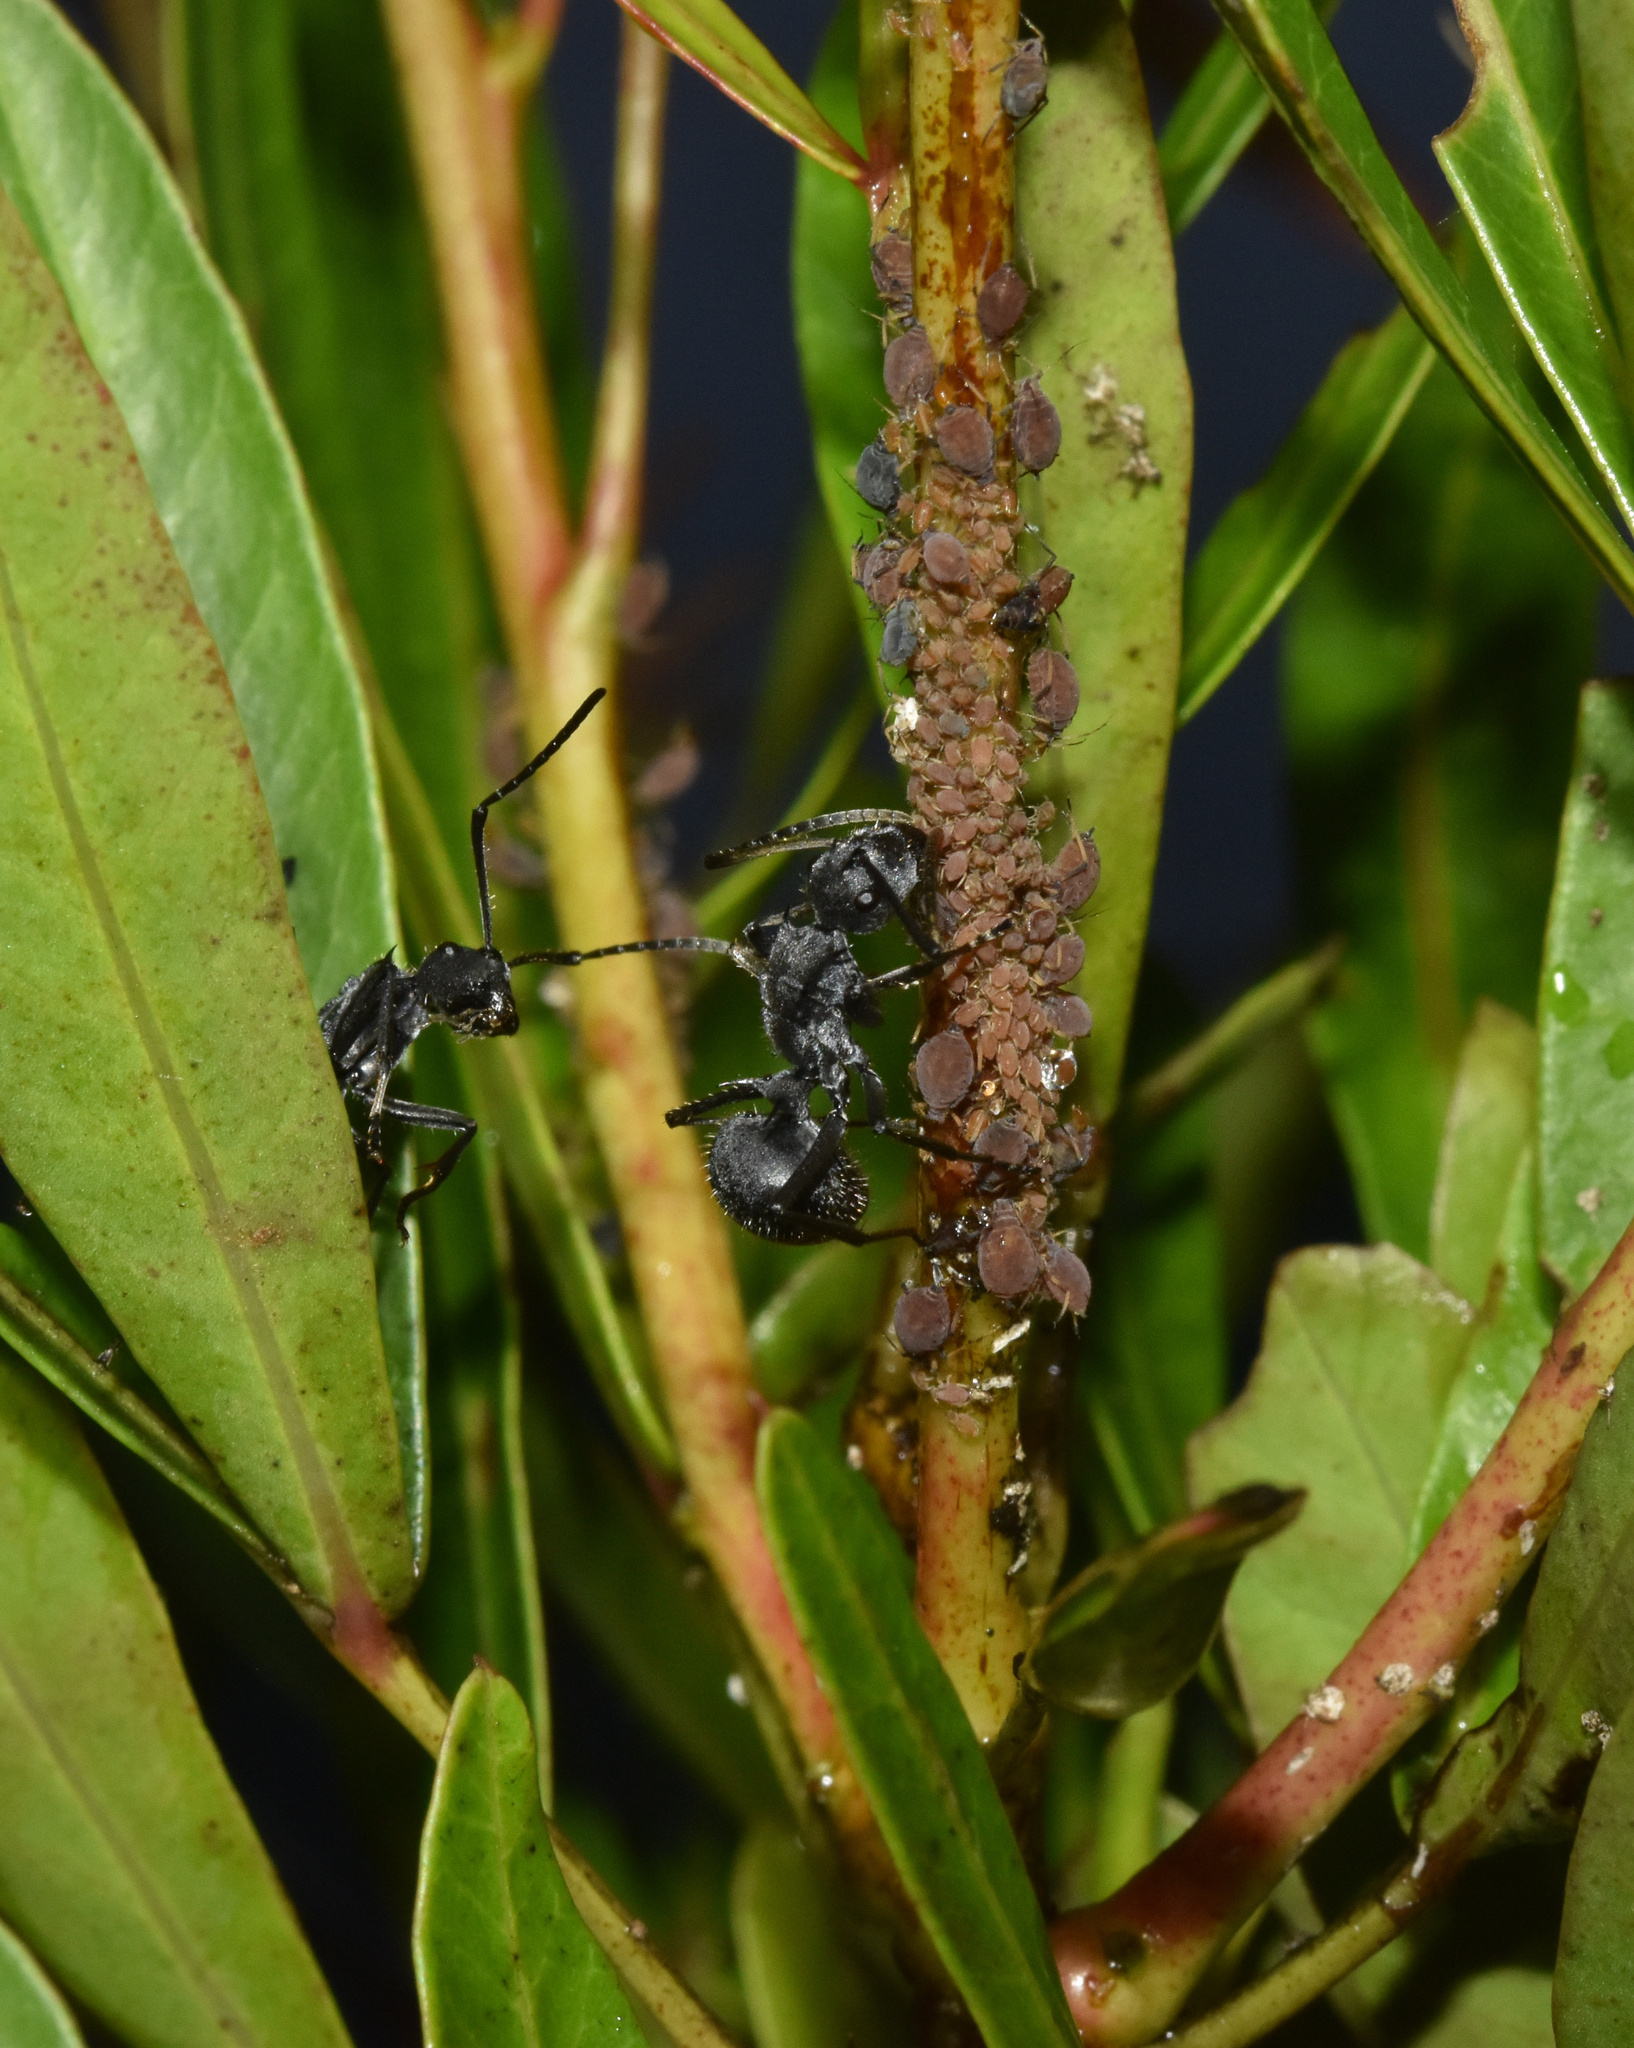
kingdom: Animalia
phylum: Arthropoda
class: Insecta
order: Hymenoptera
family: Formicidae
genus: Polyrhachis
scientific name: Polyrhachis schistacea
